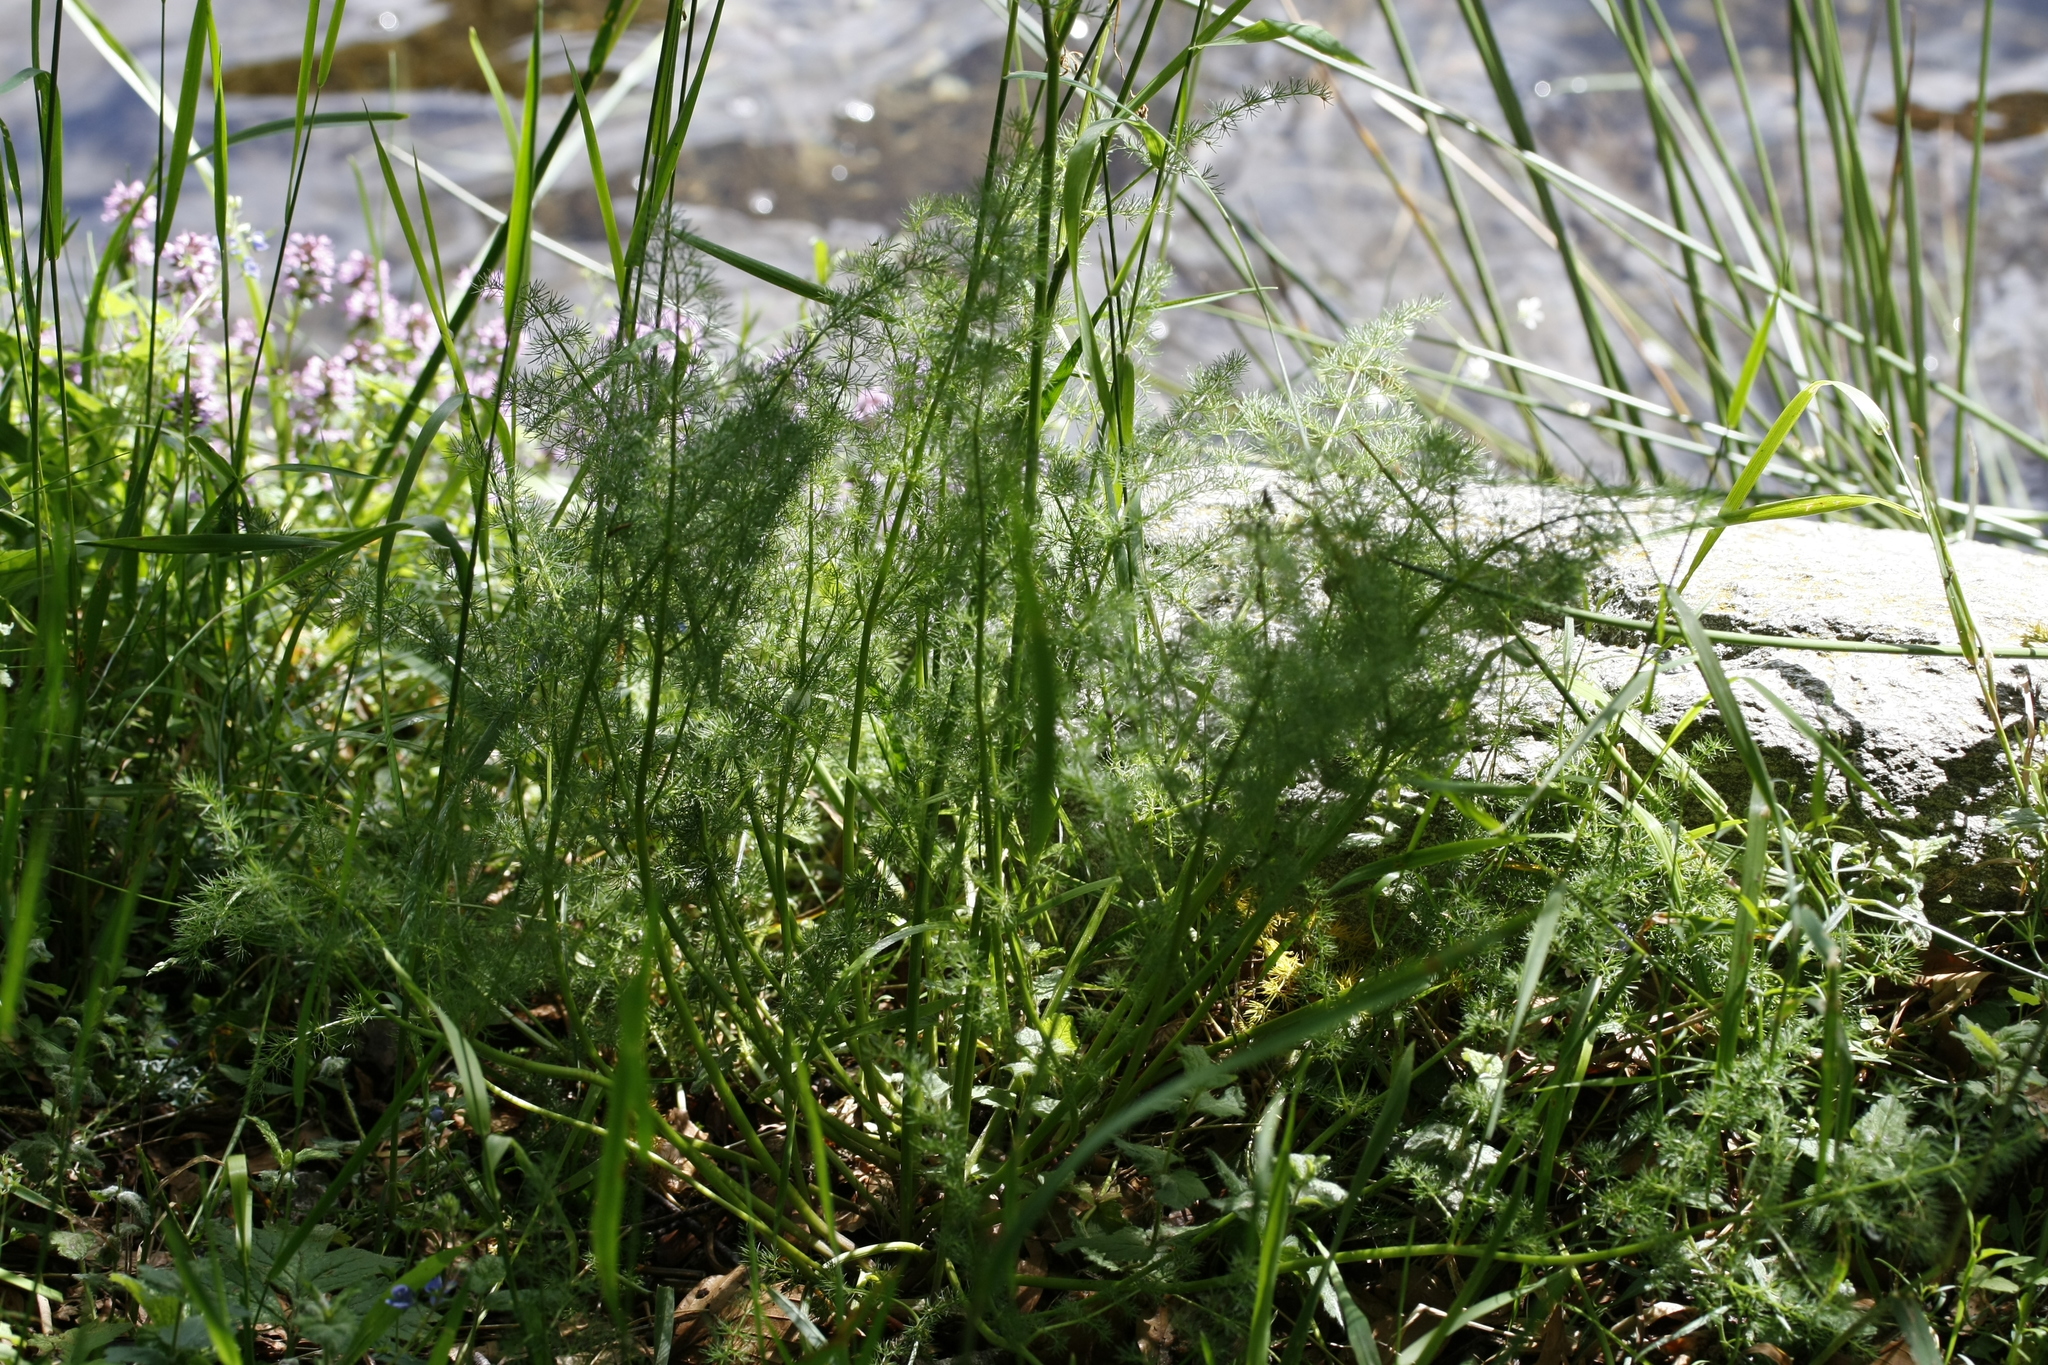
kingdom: Plantae
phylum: Tracheophyta
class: Magnoliopsida
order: Apiales
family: Apiaceae
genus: Meum
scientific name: Meum athamanticum
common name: Spignel
